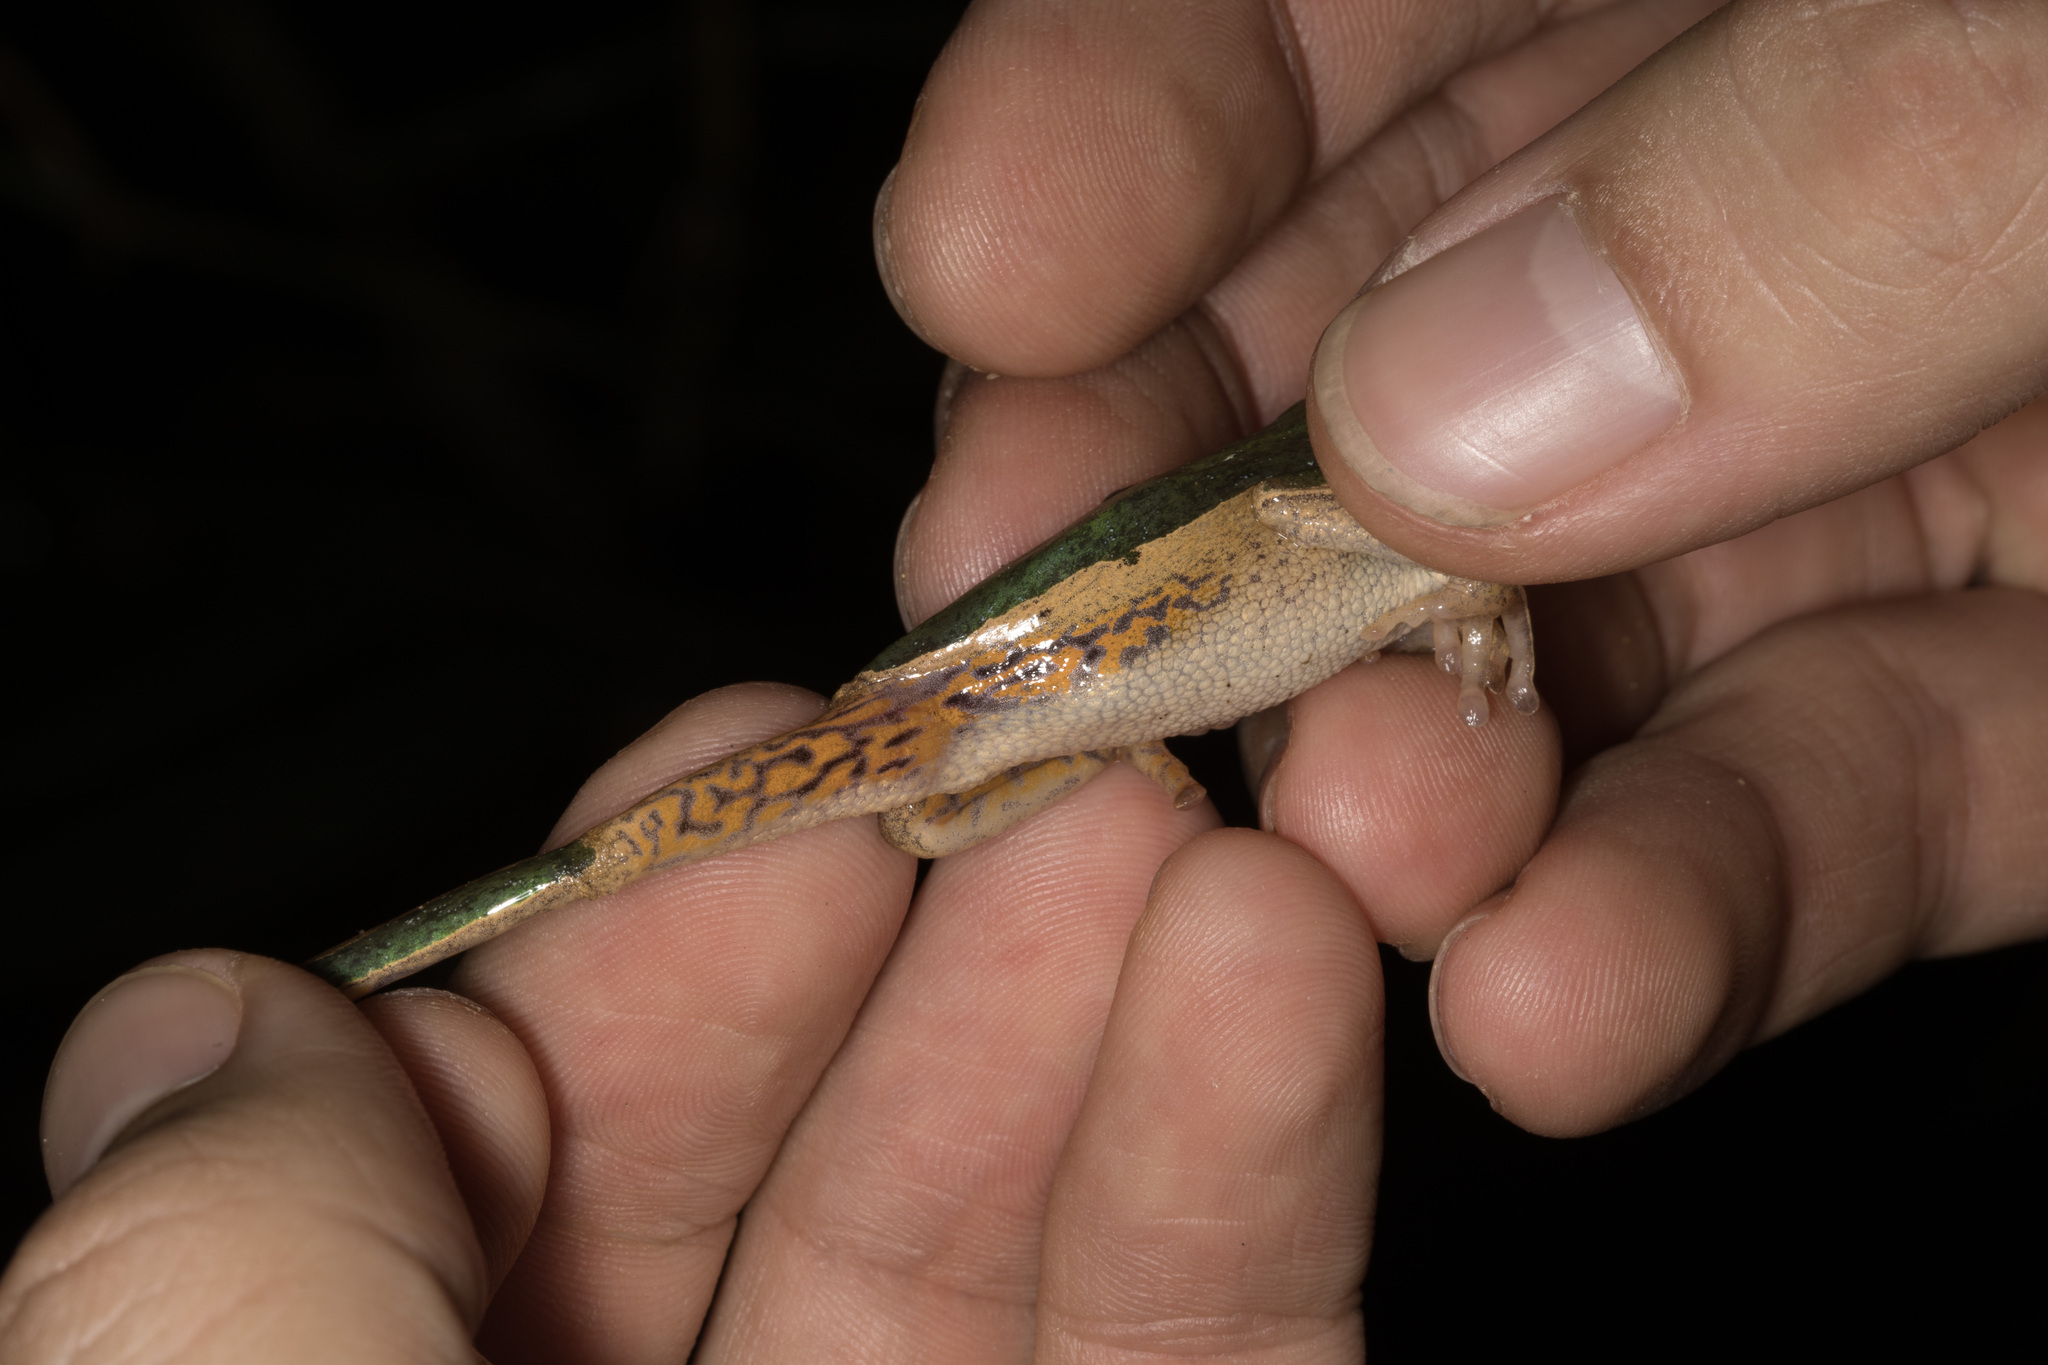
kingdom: Animalia
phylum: Chordata
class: Amphibia
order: Anura
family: Phyllomedusidae
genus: Pithecopus
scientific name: Pithecopus palliatus
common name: Jaguar leaf frog
